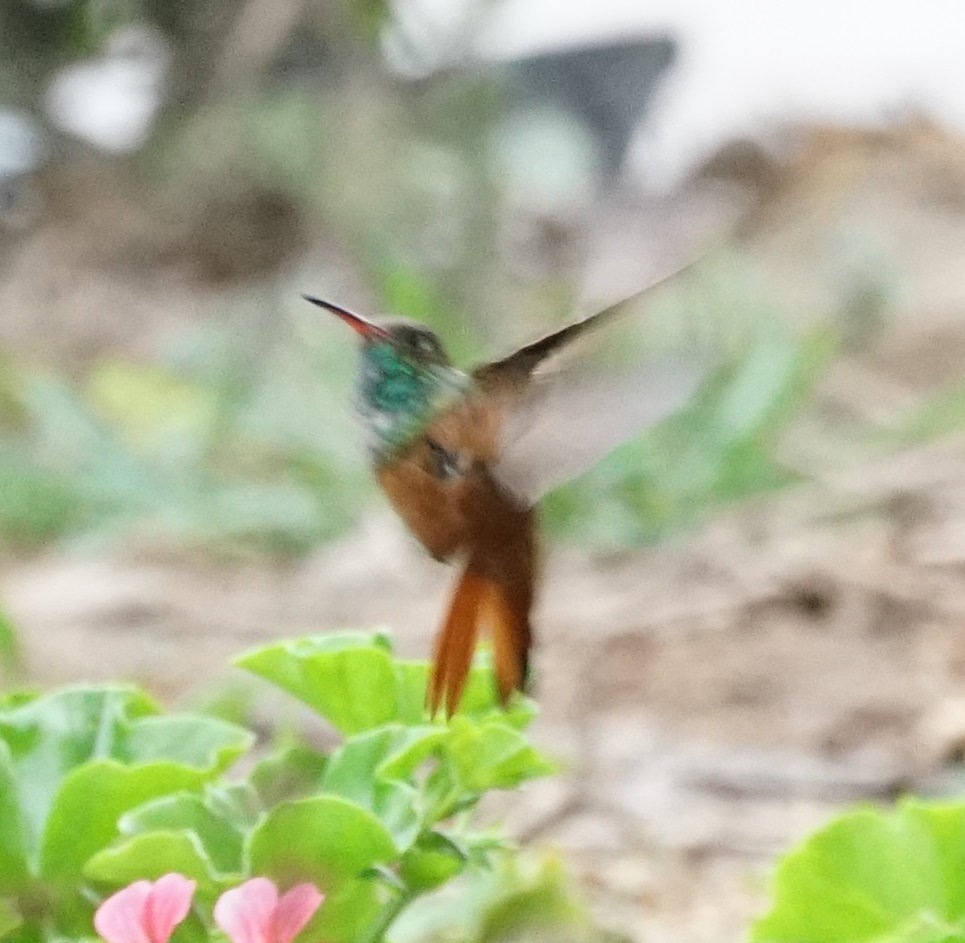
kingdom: Animalia
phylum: Chordata
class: Aves
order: Apodiformes
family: Trochilidae
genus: Amazilis
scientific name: Amazilis amazilia
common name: Amazilia hummingbird
